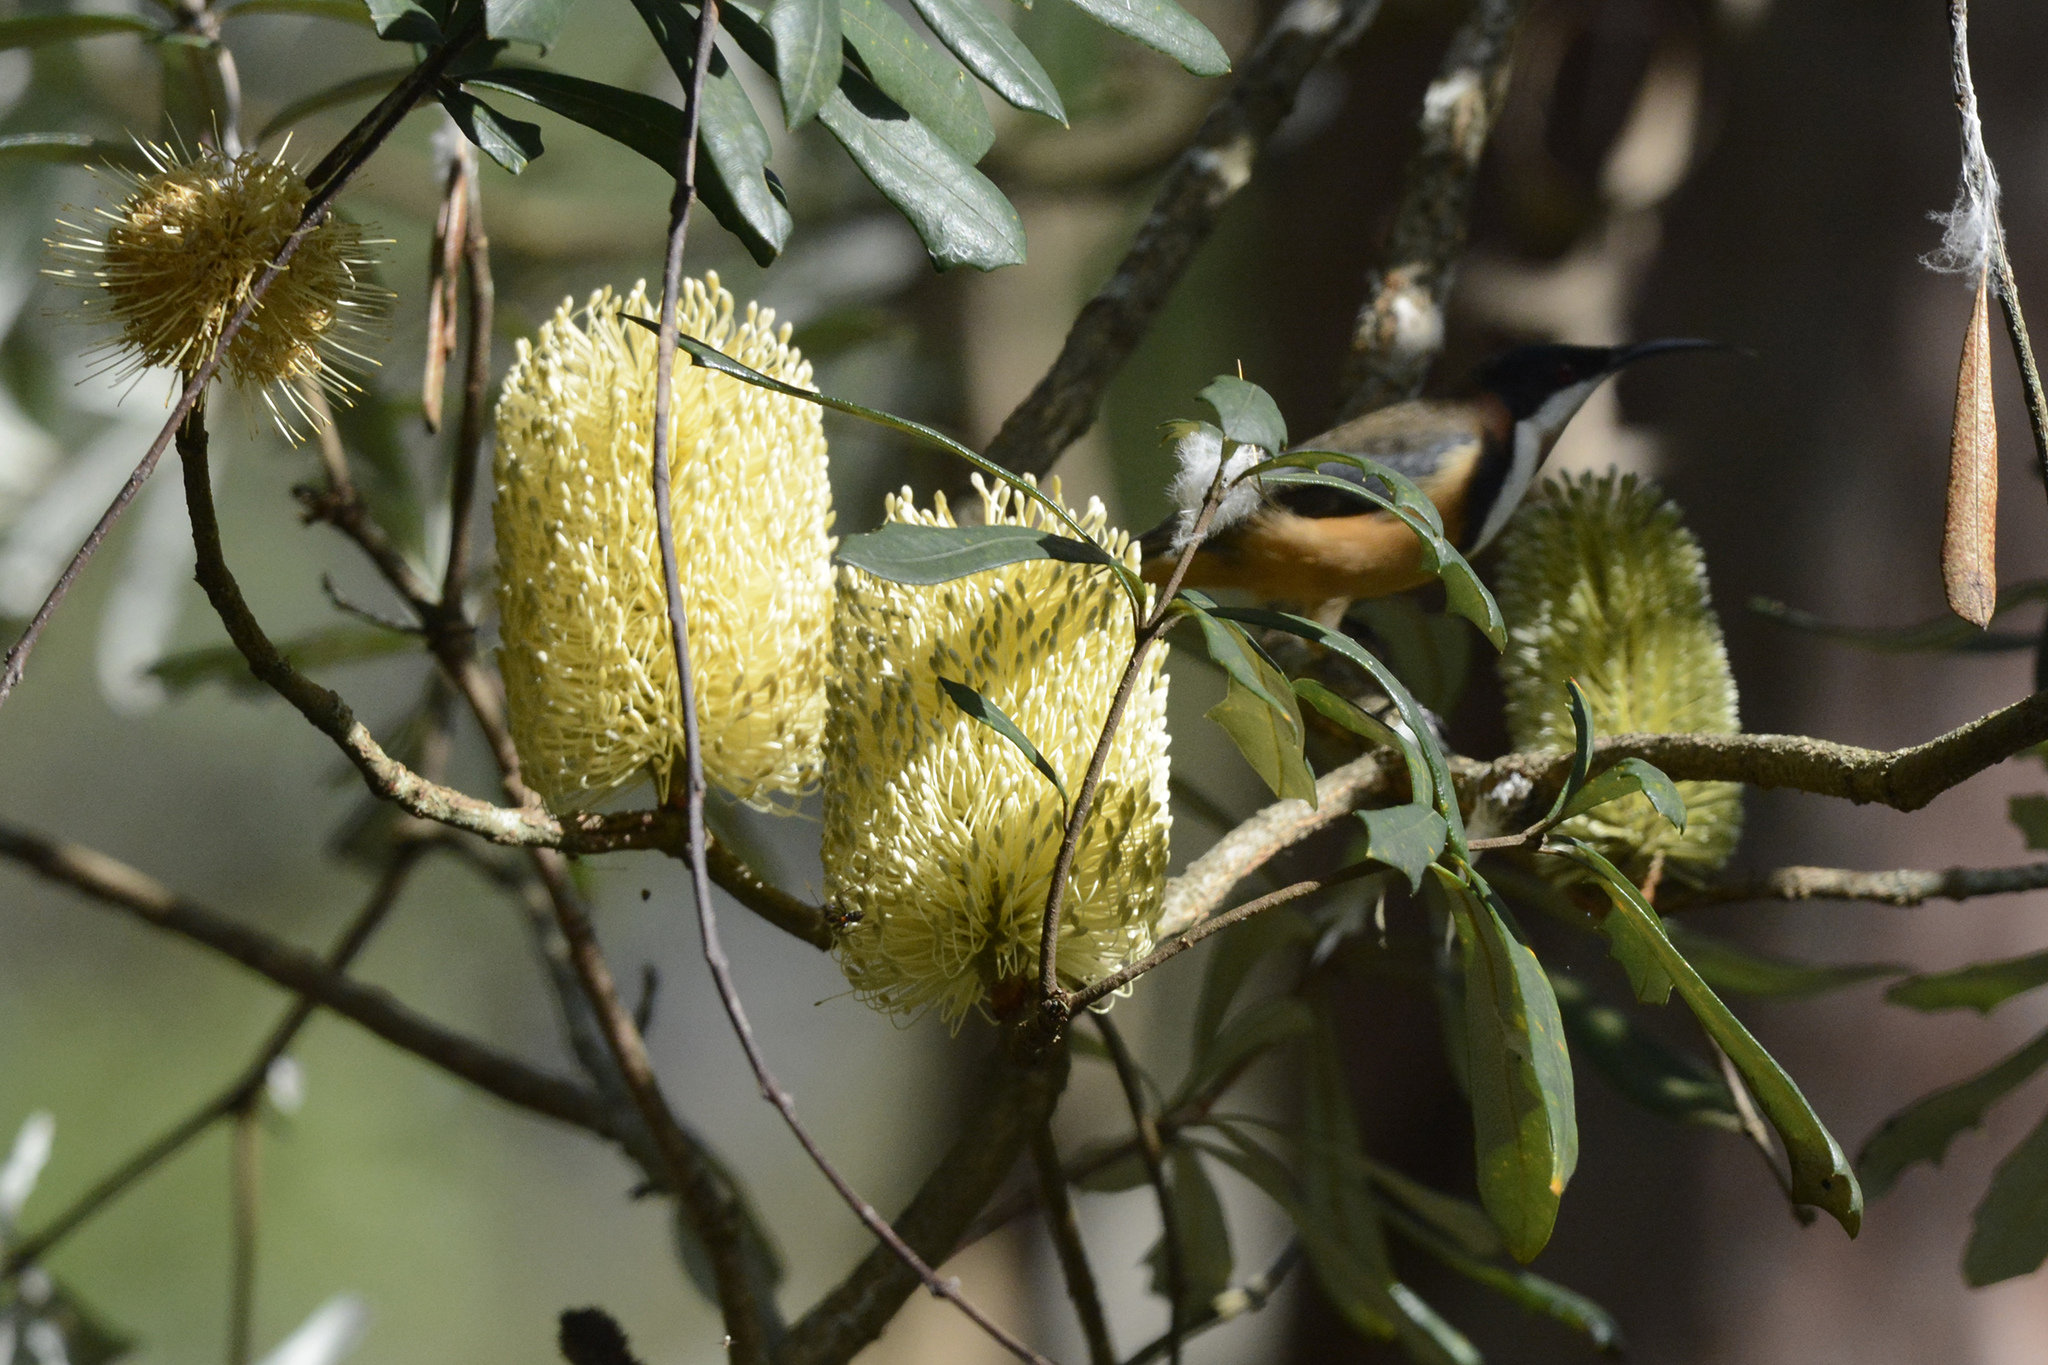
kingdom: Plantae
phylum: Tracheophyta
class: Magnoliopsida
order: Proteales
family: Proteaceae
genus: Banksia
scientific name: Banksia integrifolia
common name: White-honeysuckle
